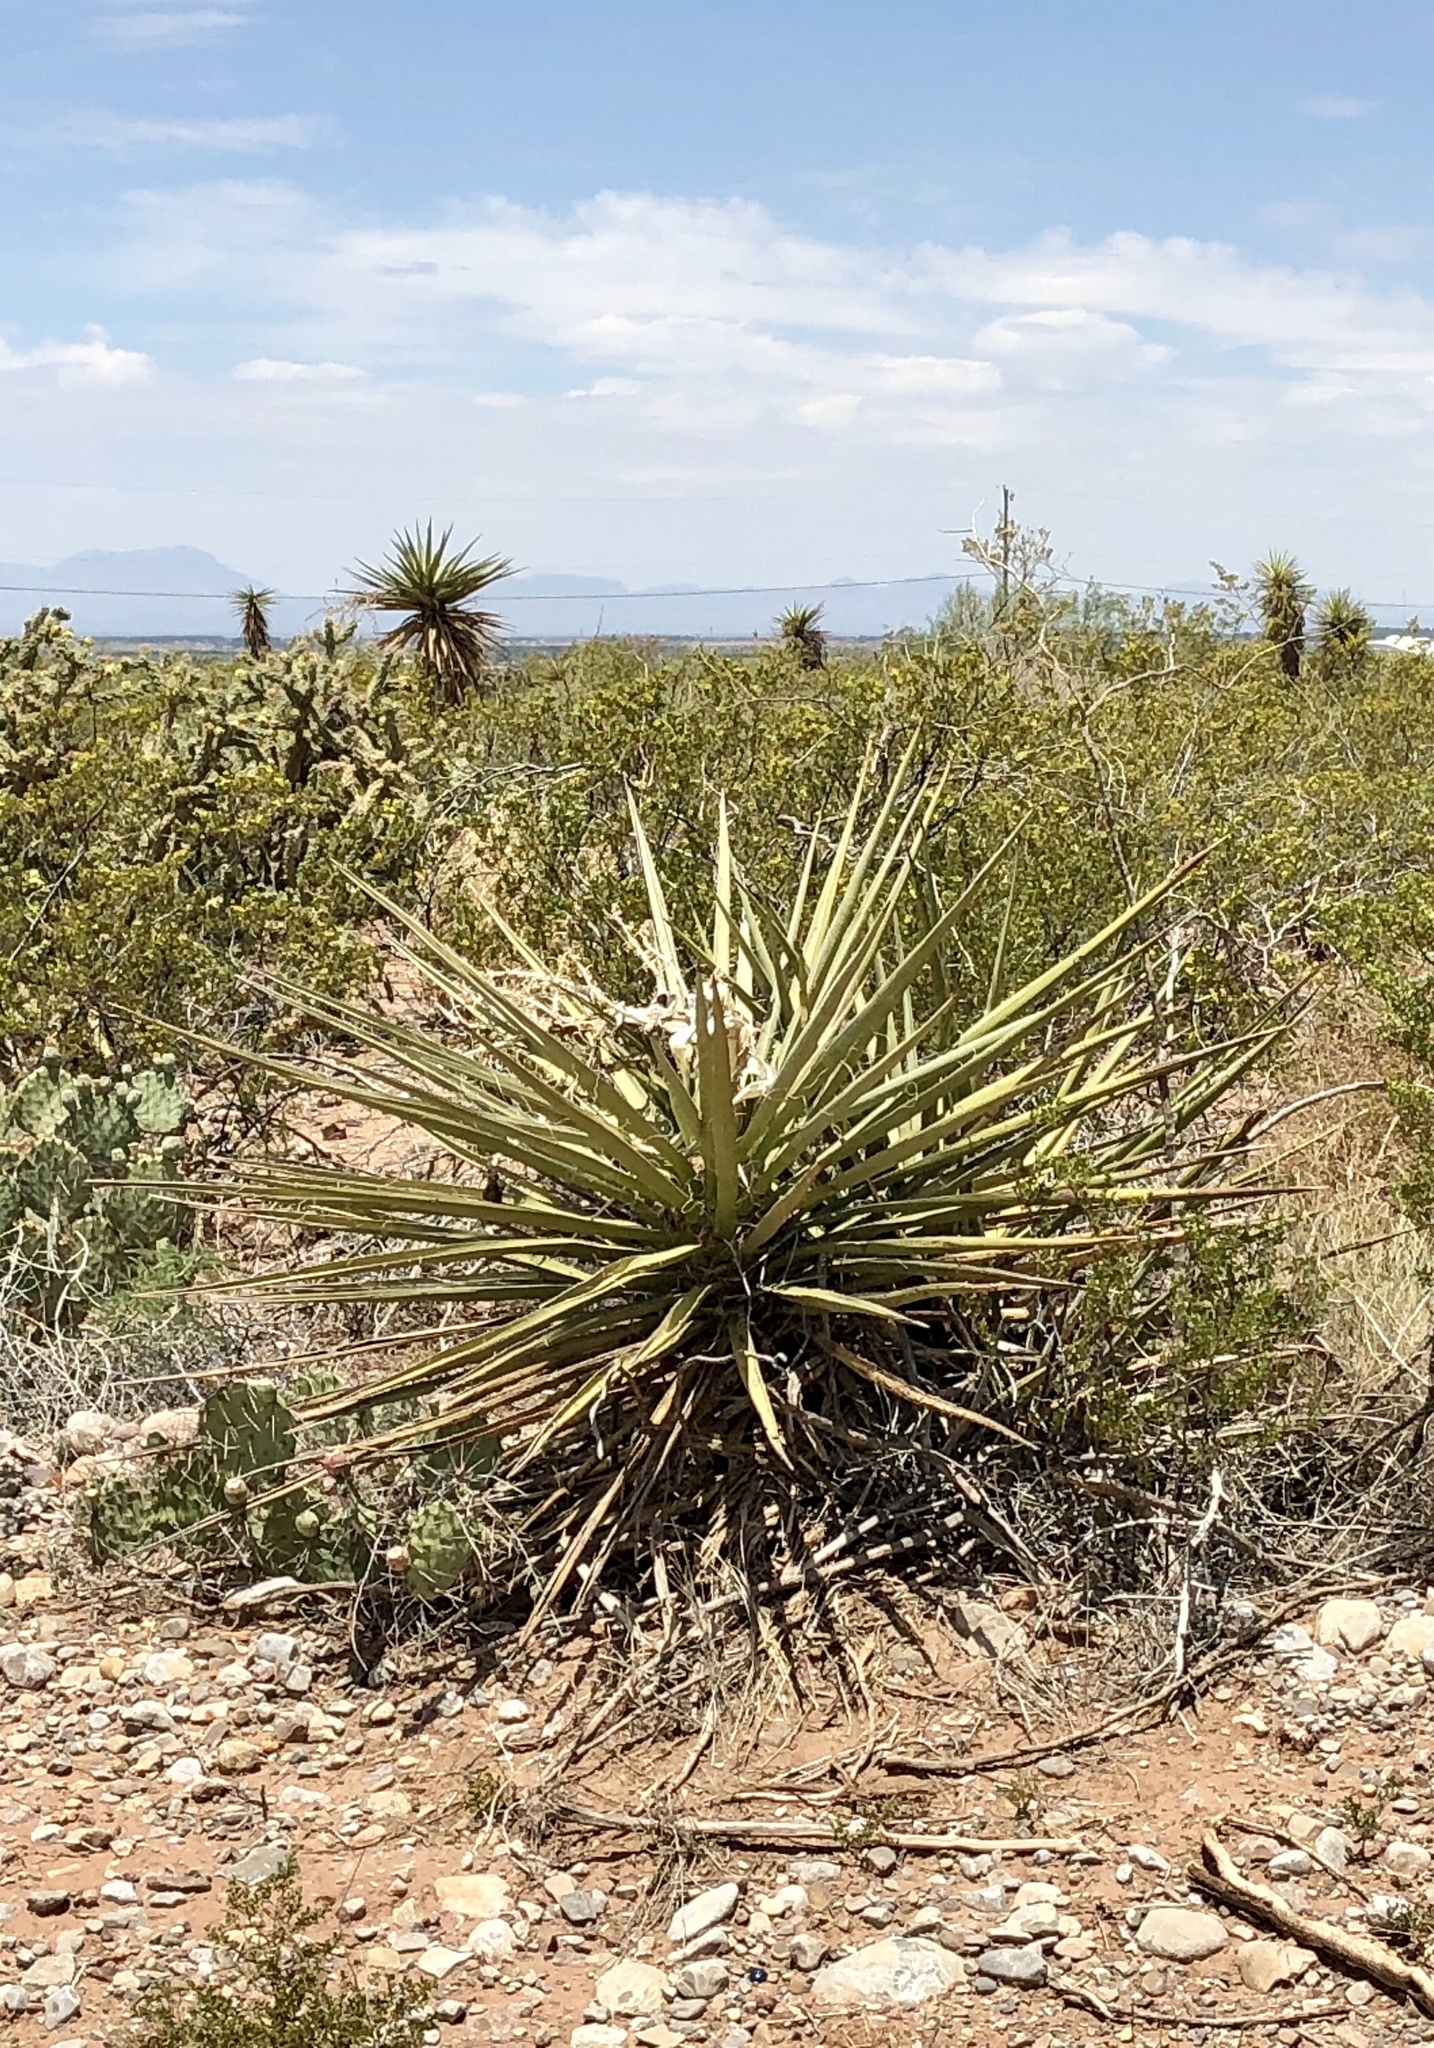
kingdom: Plantae
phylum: Tracheophyta
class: Liliopsida
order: Asparagales
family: Asparagaceae
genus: Yucca
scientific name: Yucca treculiana
